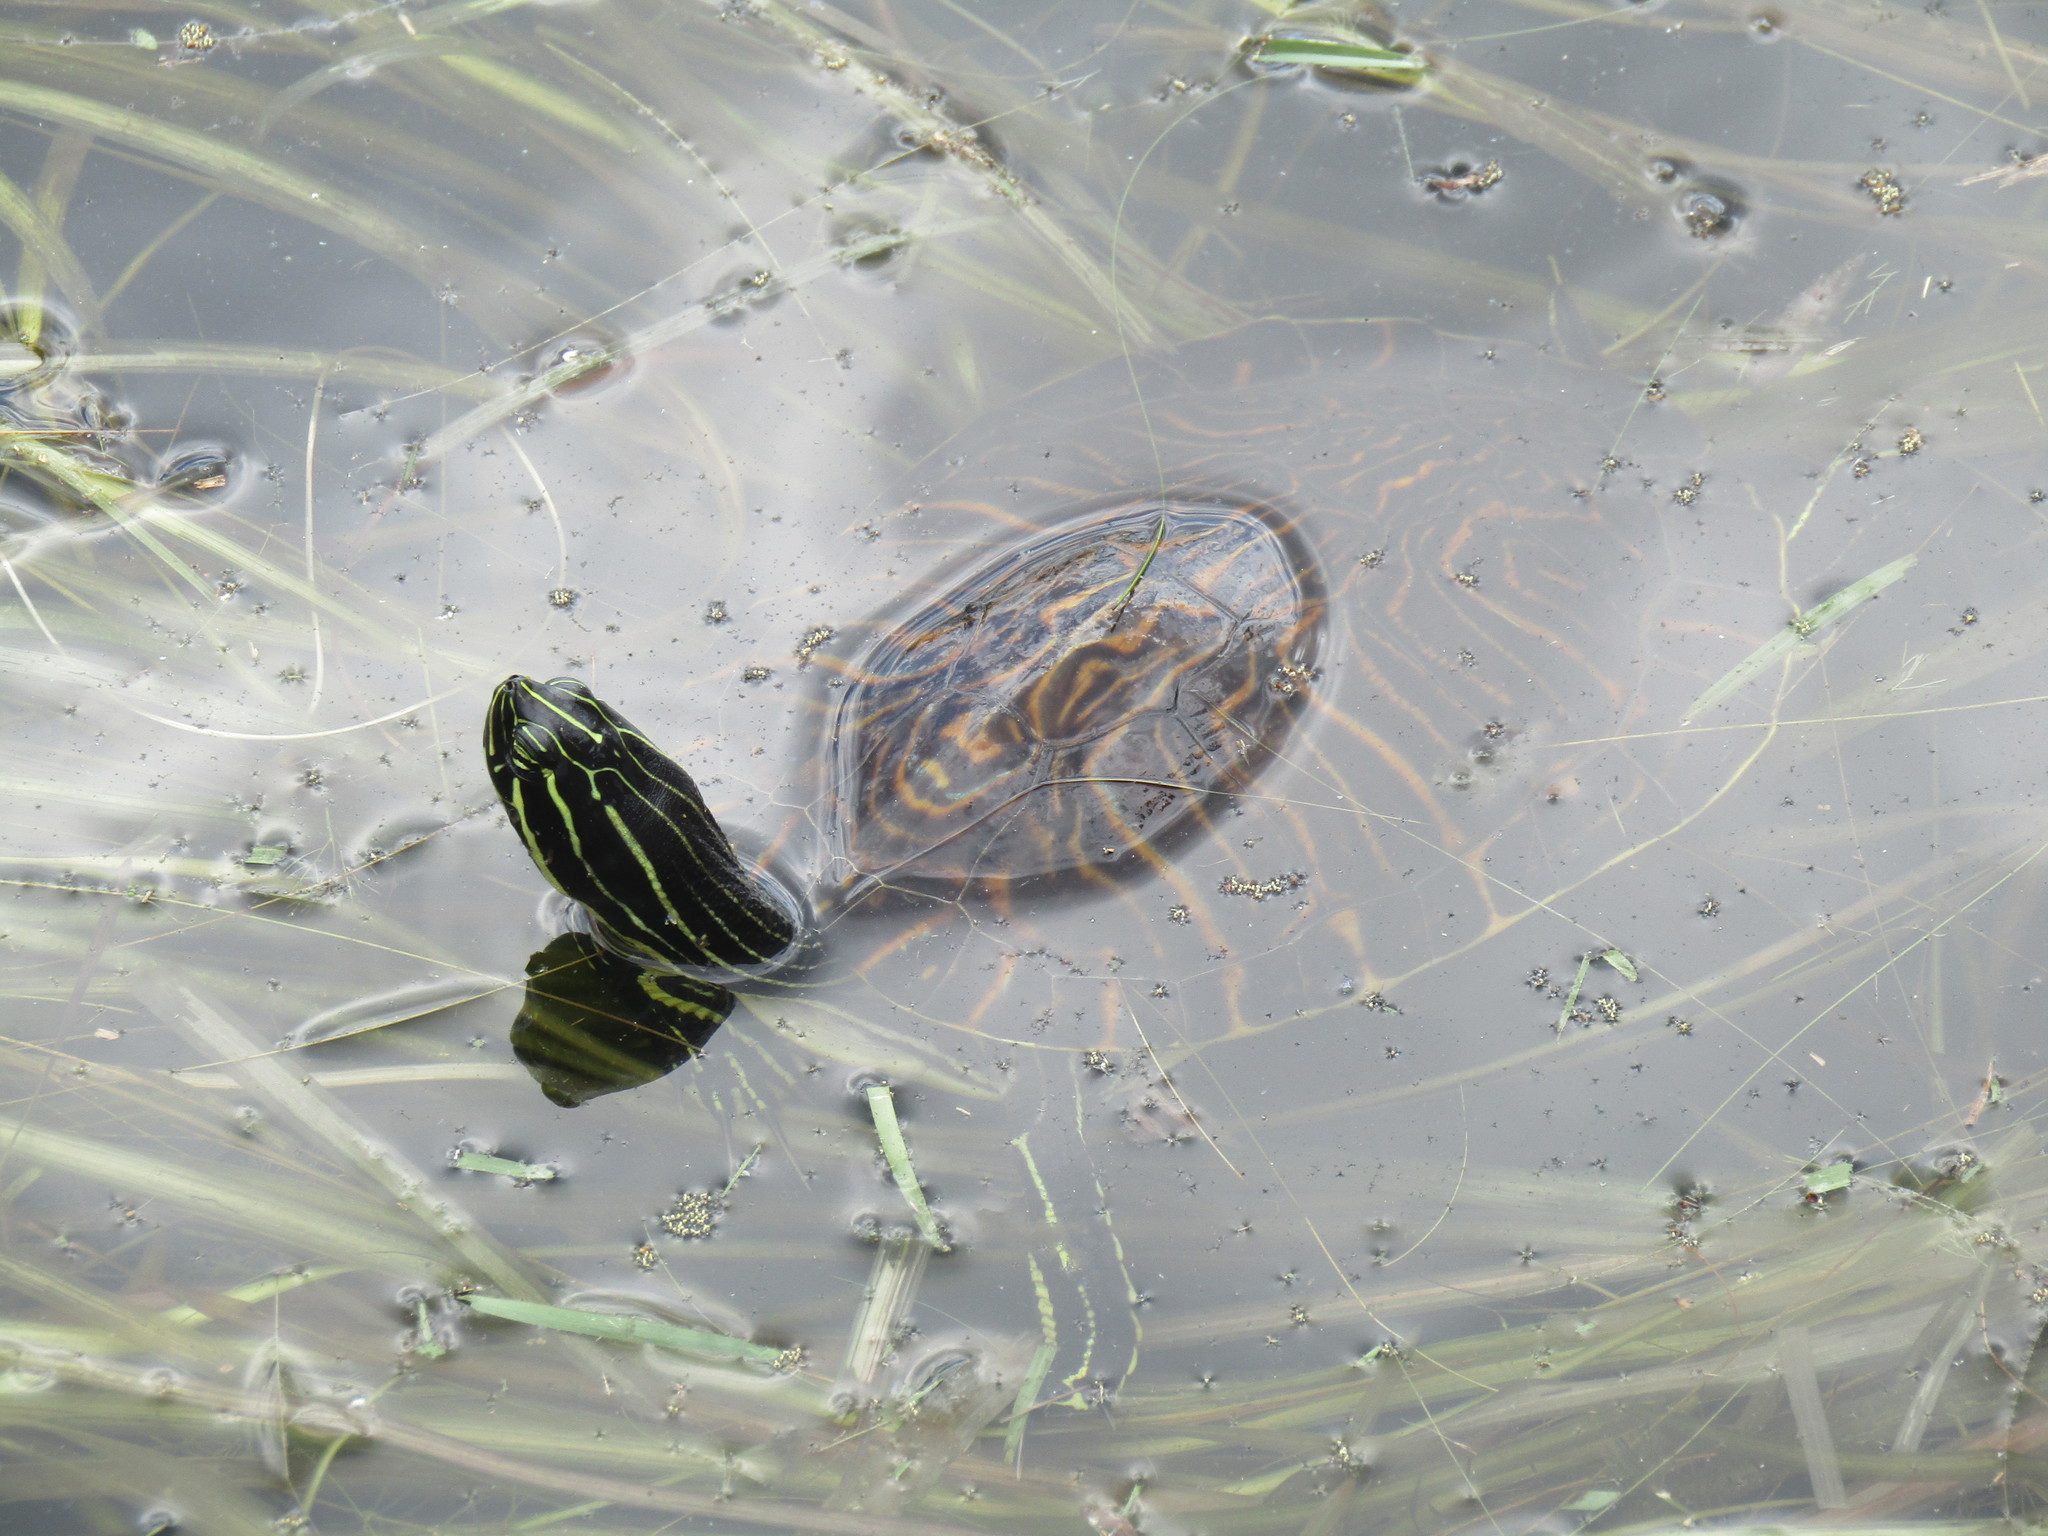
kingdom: Animalia
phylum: Chordata
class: Testudines
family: Emydidae
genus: Pseudemys
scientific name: Pseudemys peninsularis
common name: Peninsula cooter
